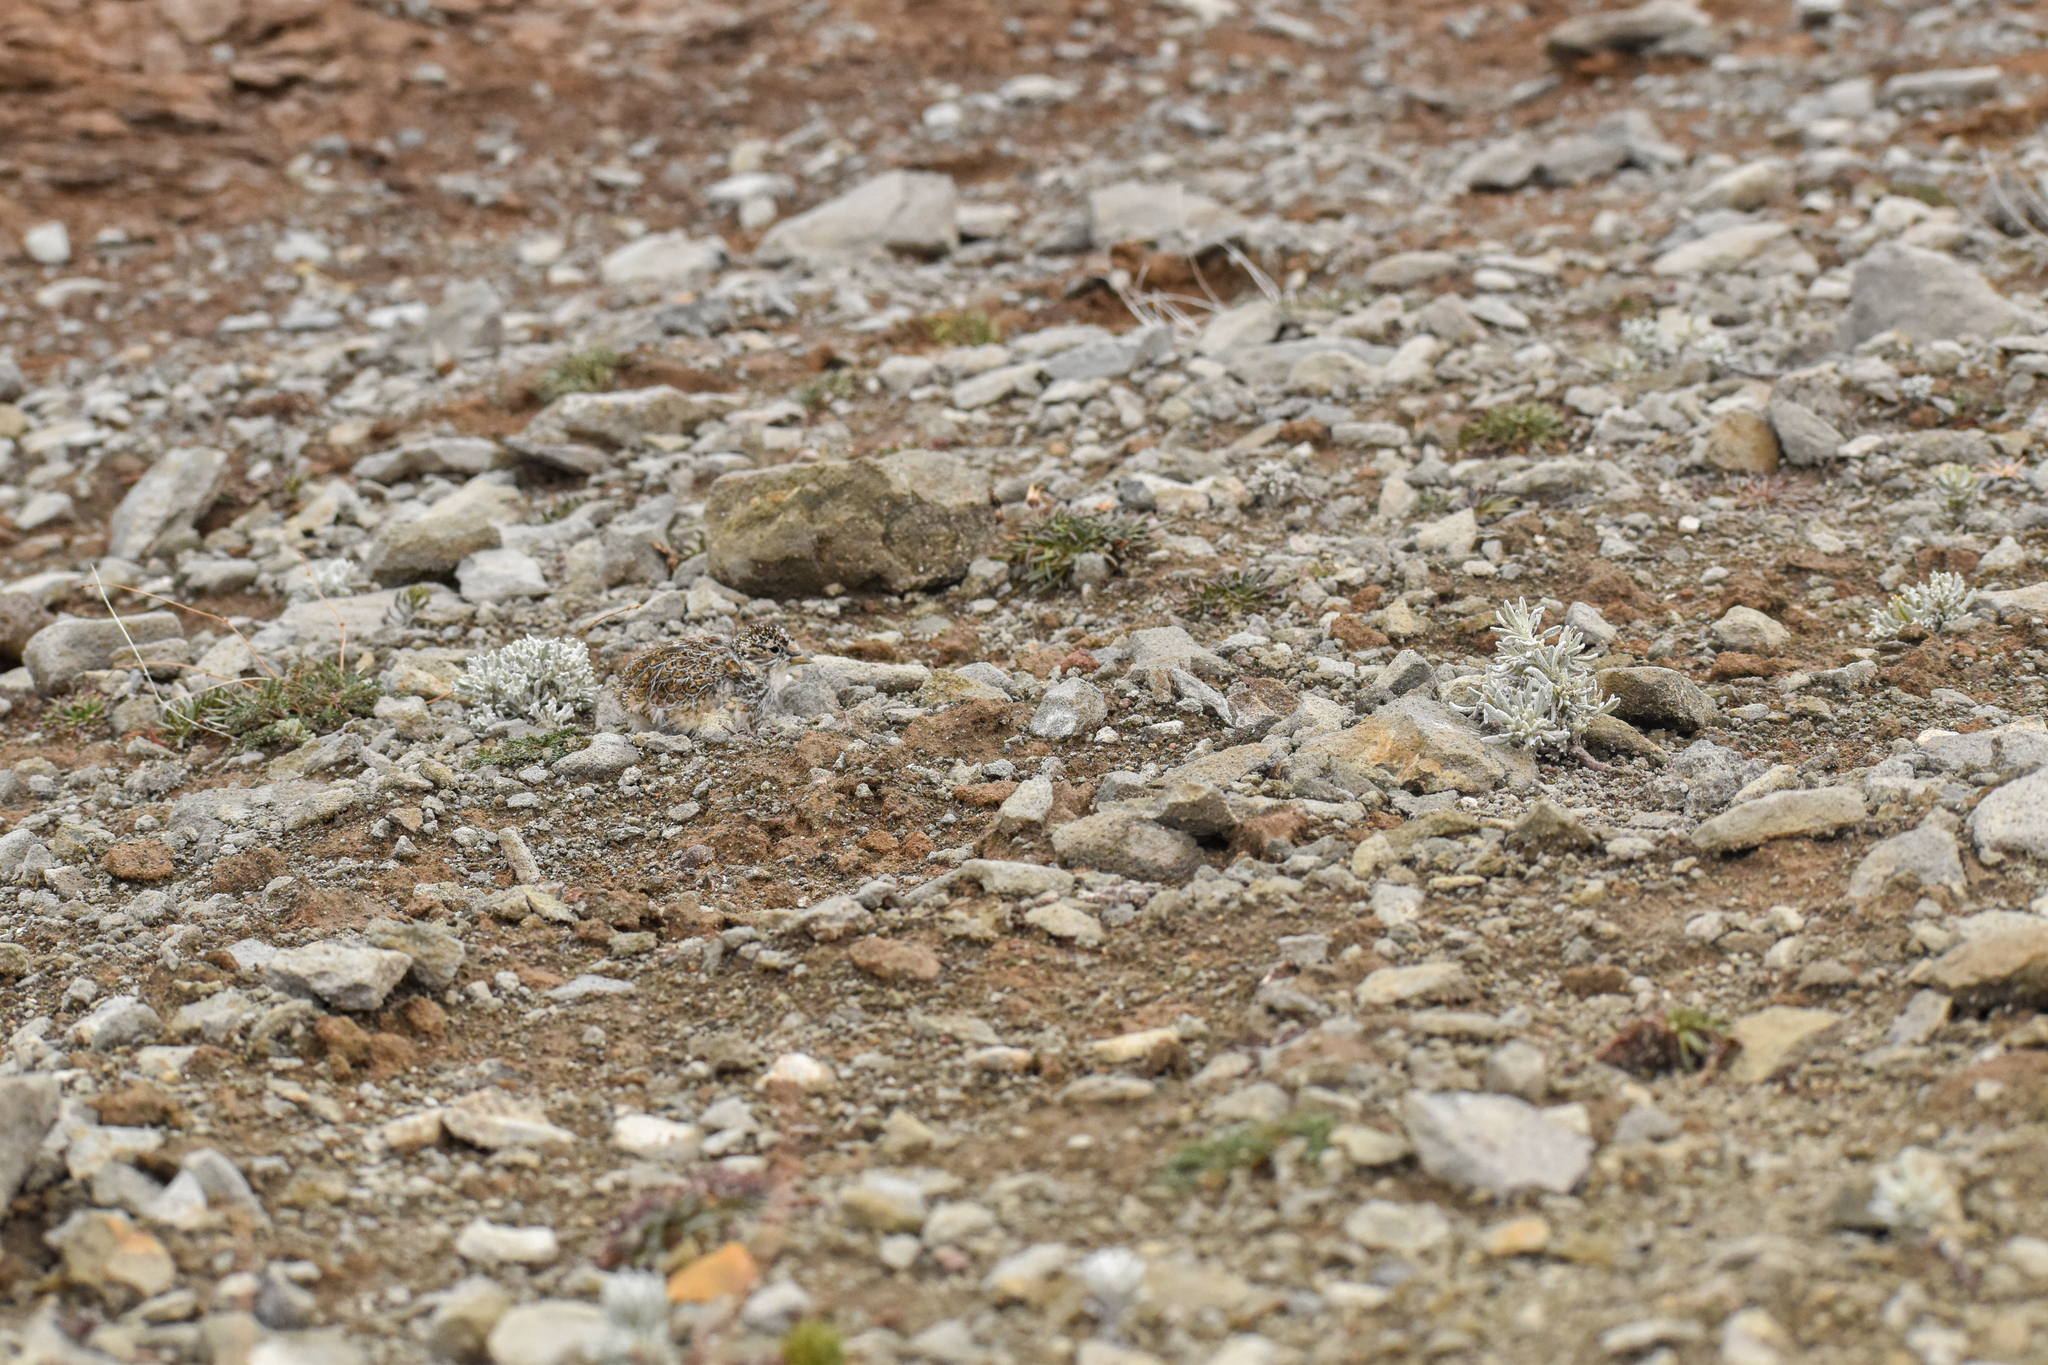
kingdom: Animalia
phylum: Chordata
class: Aves
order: Charadriiformes
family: Thinocoridae
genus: Thinocorus
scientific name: Thinocorus rumicivorus
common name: Least seedsnipe
